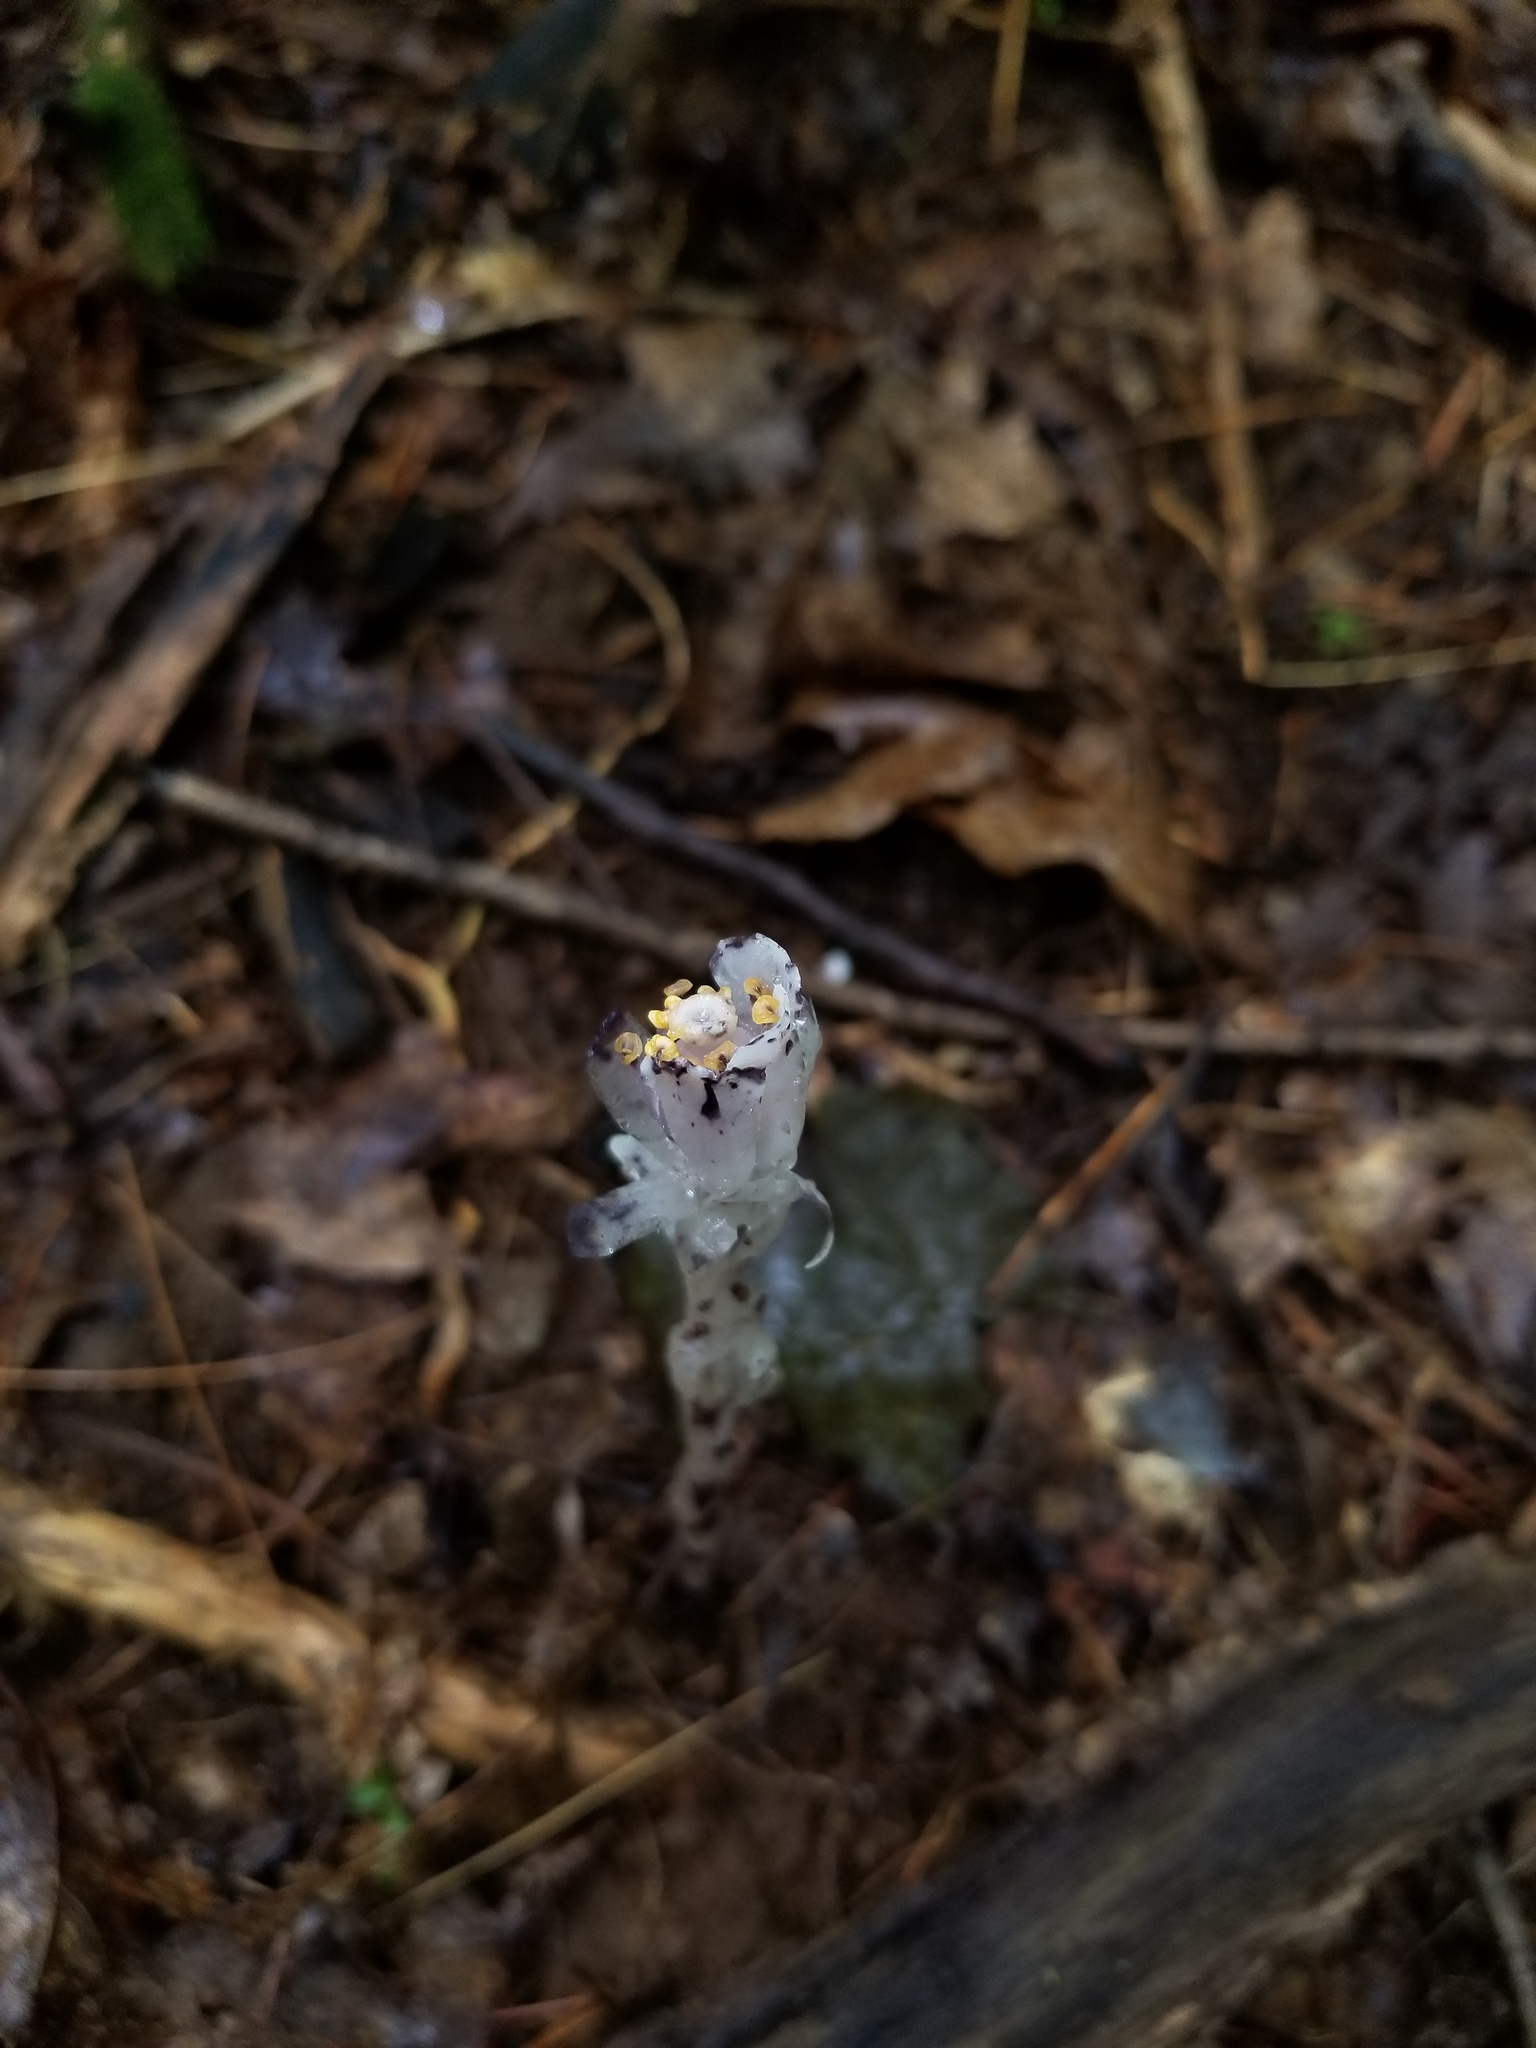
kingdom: Plantae
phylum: Tracheophyta
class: Magnoliopsida
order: Ericales
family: Ericaceae
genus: Monotropa
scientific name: Monotropa uniflora
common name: Convulsion root
